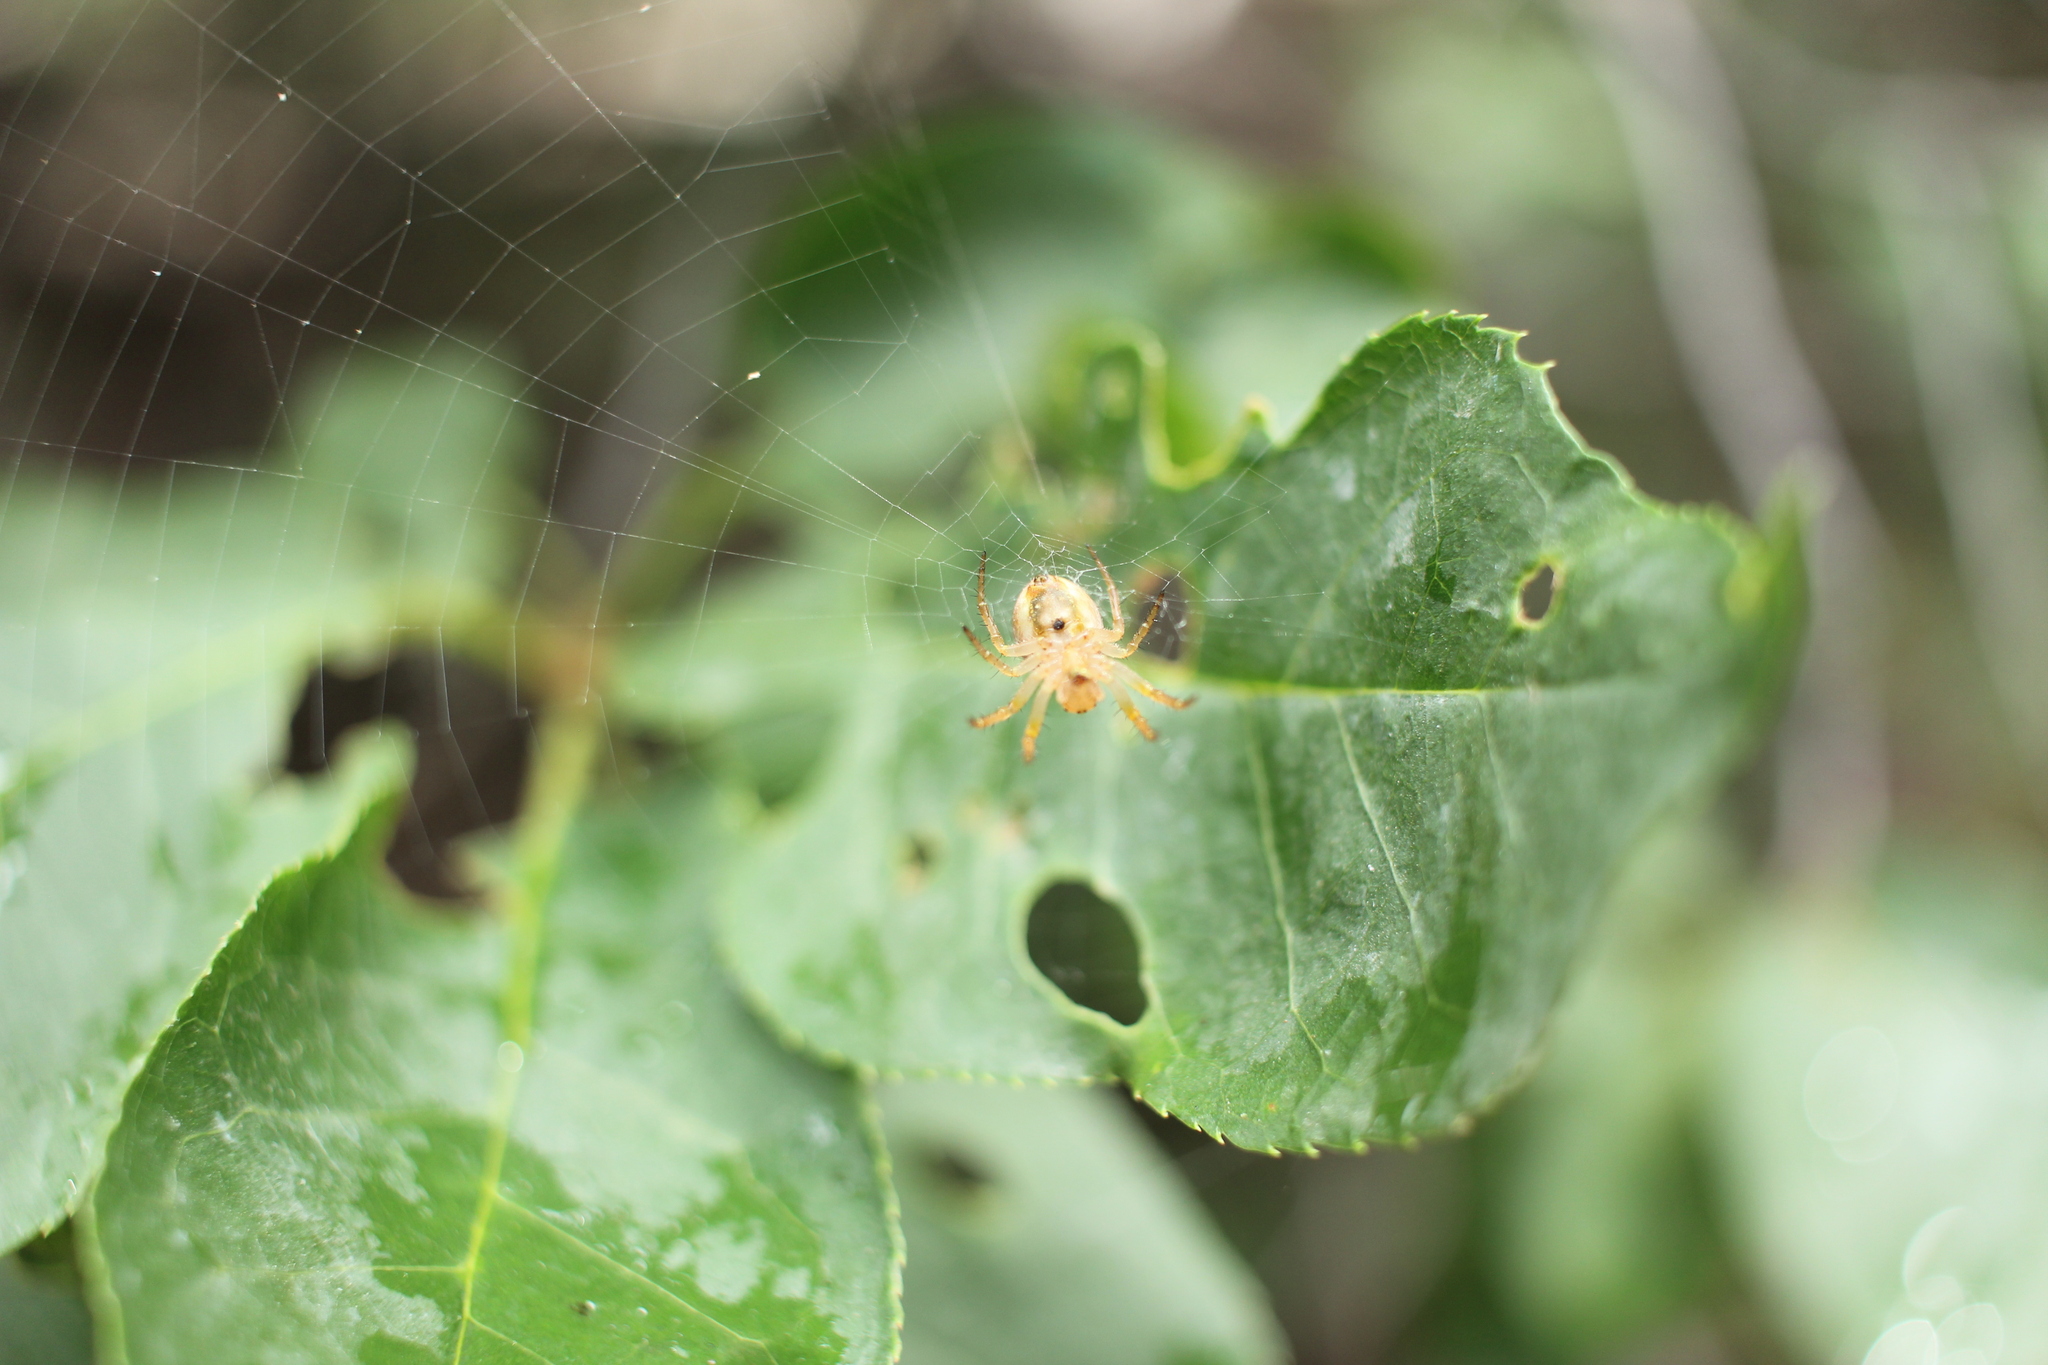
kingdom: Animalia
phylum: Arthropoda
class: Arachnida
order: Araneae
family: Araneidae
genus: Araniella
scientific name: Araniella displicata
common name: Sixspotted orb weaver
